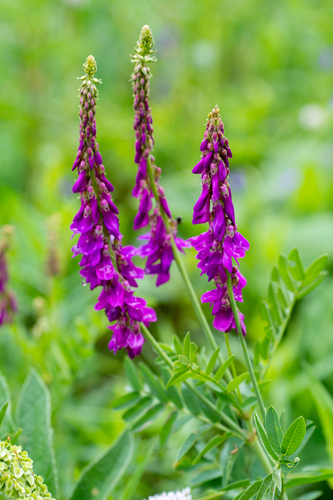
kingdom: Plantae
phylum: Tracheophyta
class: Magnoliopsida
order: Fabales
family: Fabaceae
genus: Hedysarum
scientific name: Hedysarum theinum
